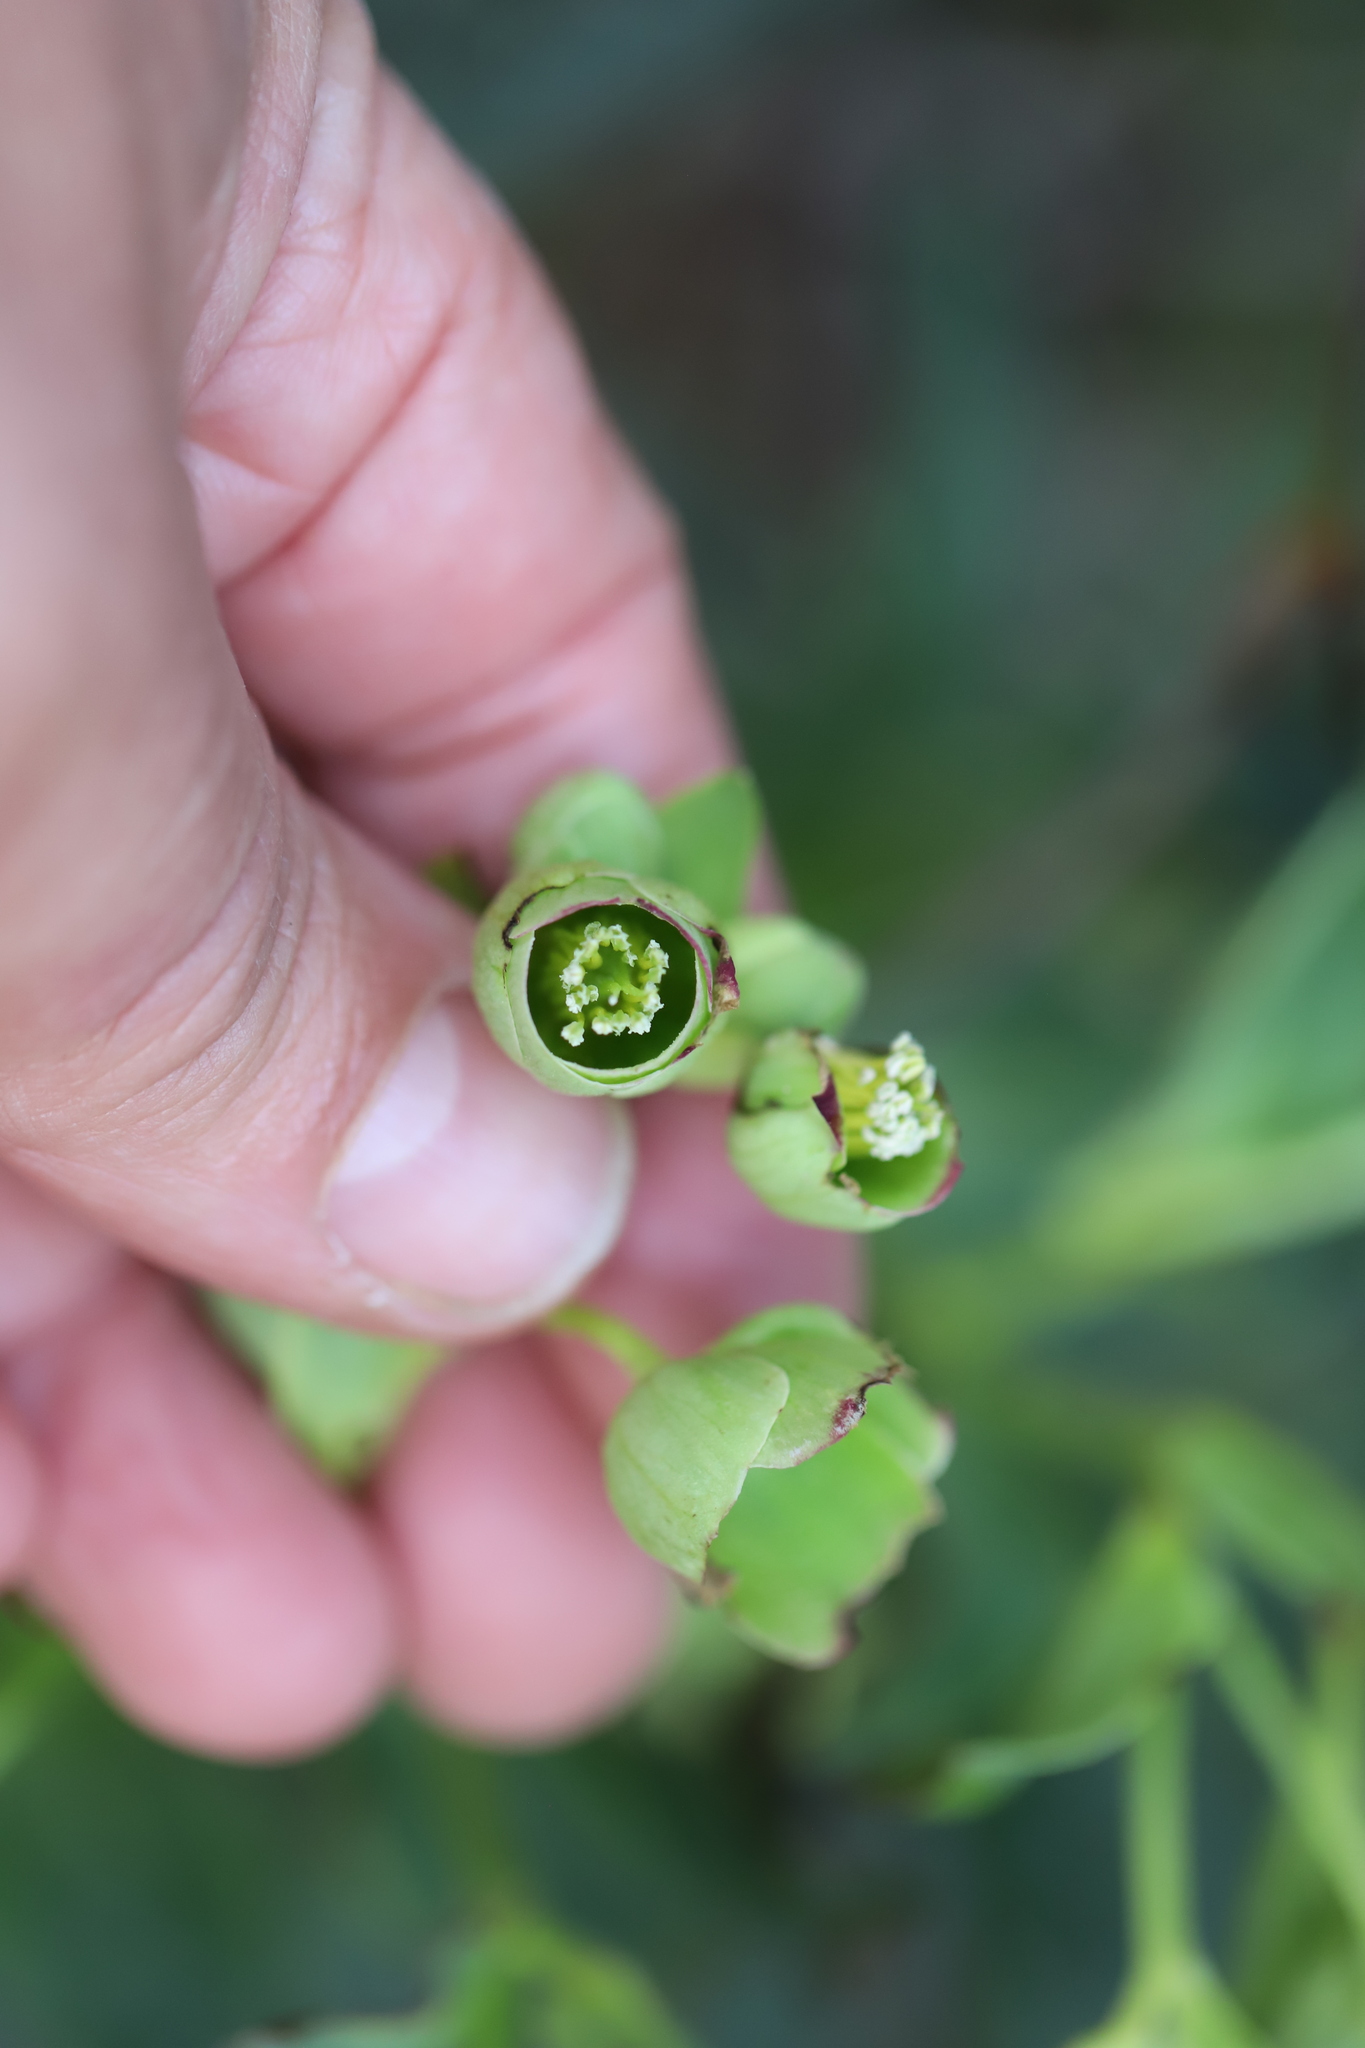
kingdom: Plantae
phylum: Tracheophyta
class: Magnoliopsida
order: Ranunculales
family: Ranunculaceae
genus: Helleborus
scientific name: Helleborus foetidus
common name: Stinking hellebore
